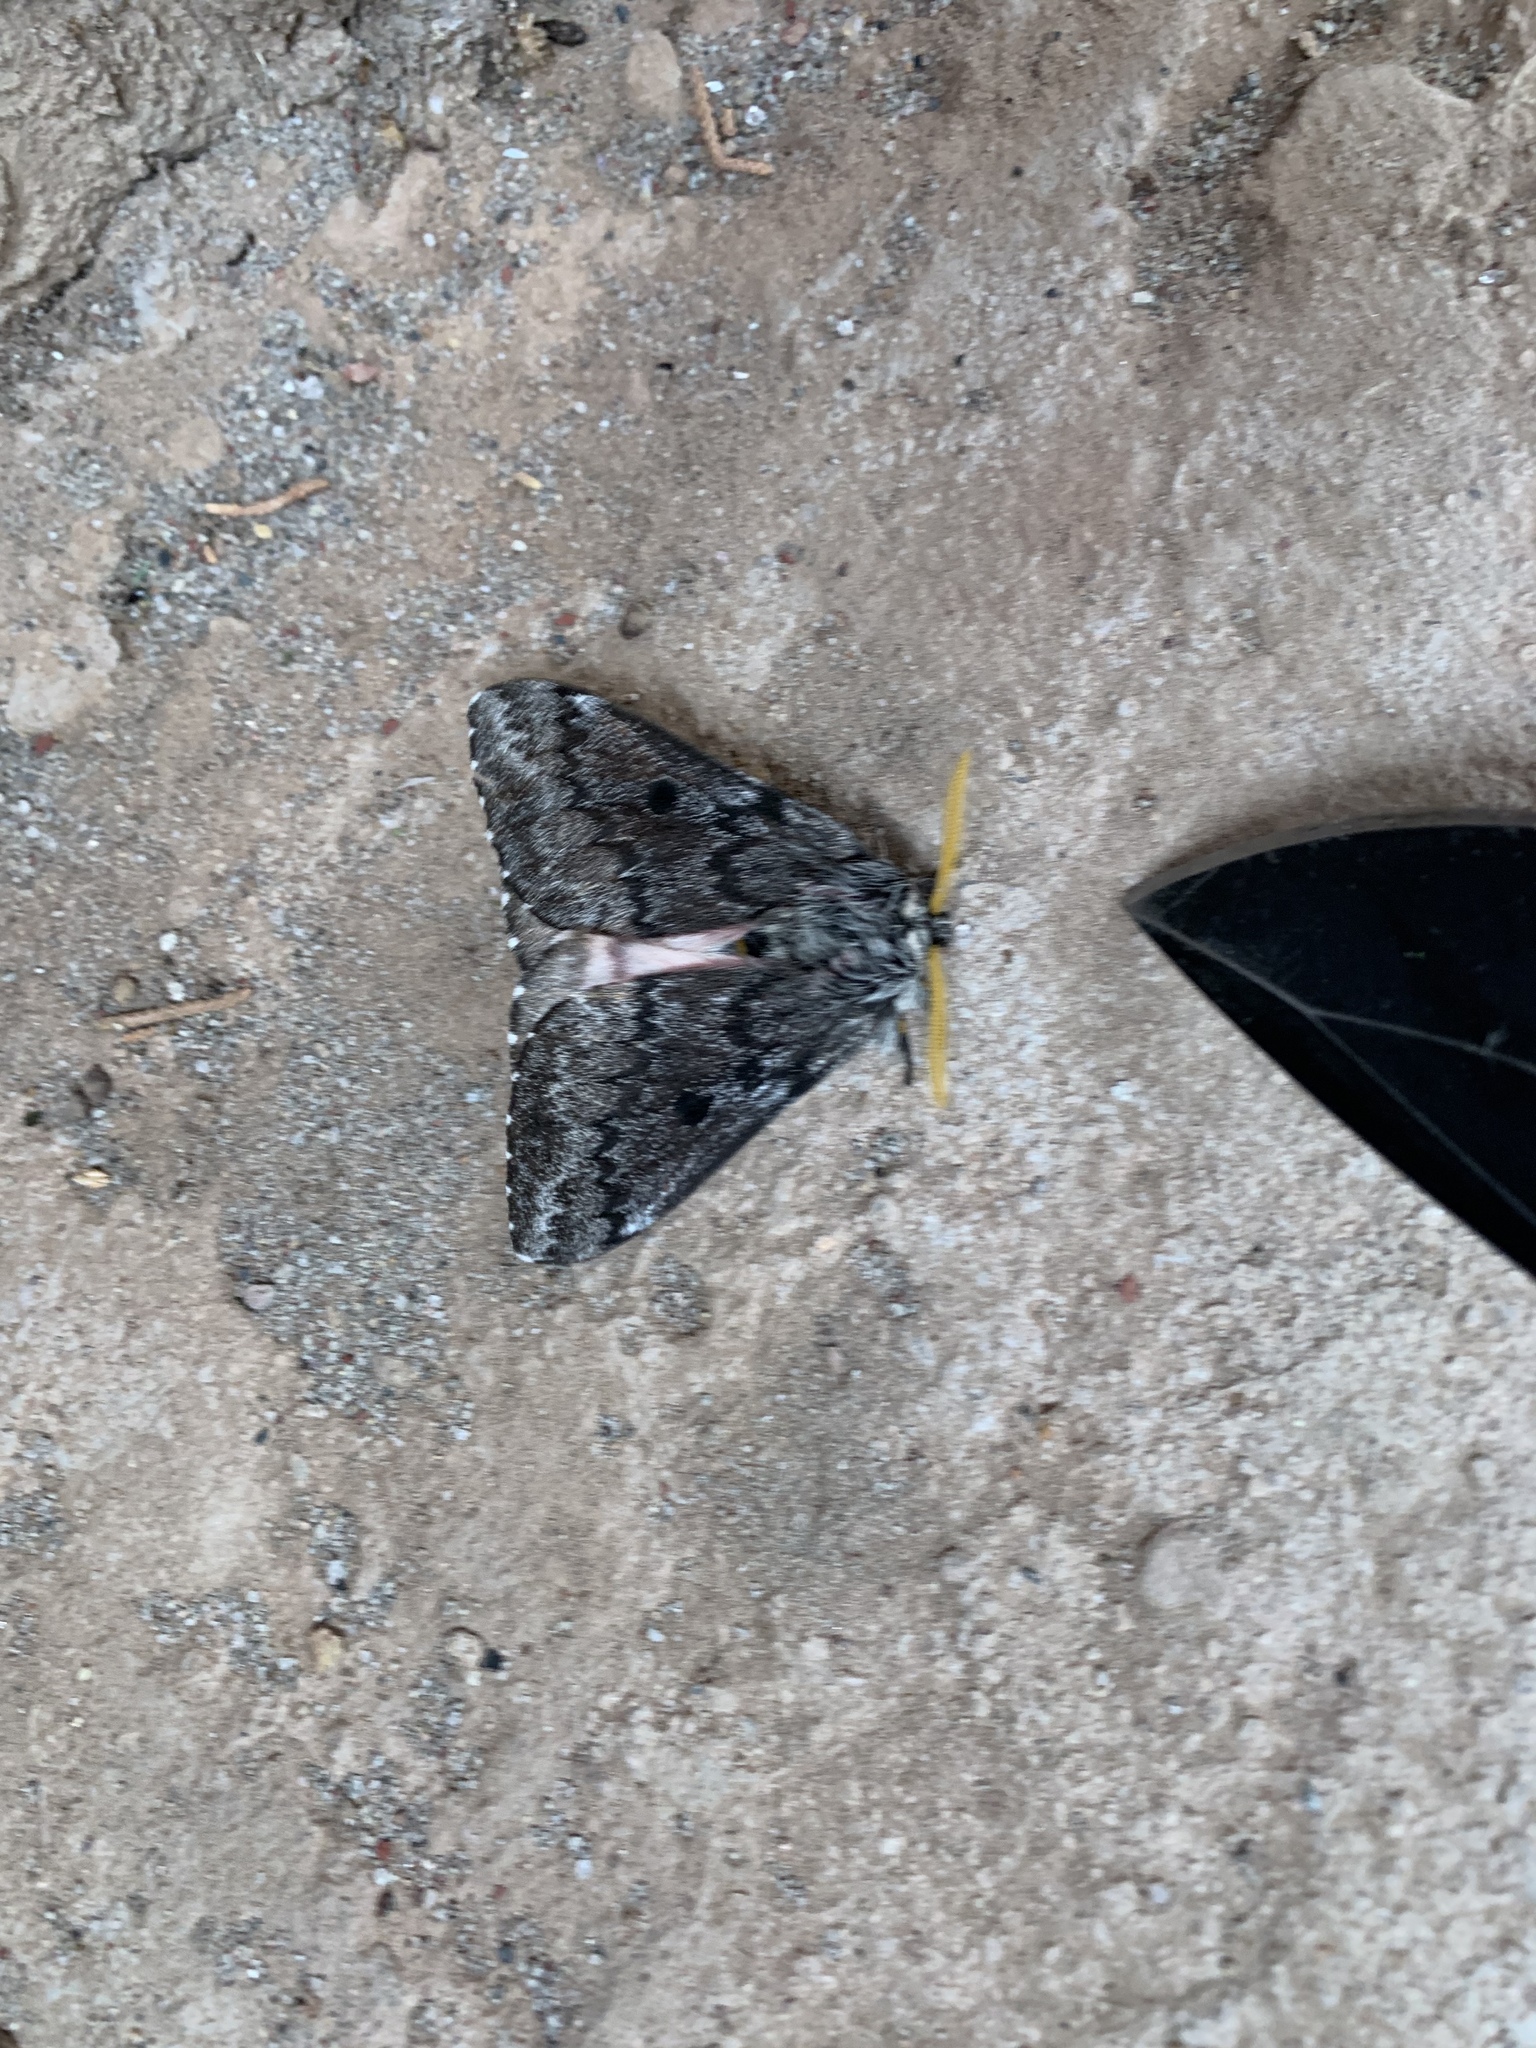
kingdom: Animalia
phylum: Arthropoda
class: Insecta
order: Lepidoptera
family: Saturniidae
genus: Coloradia
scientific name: Coloradia pandora
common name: Pandora pinemoth
